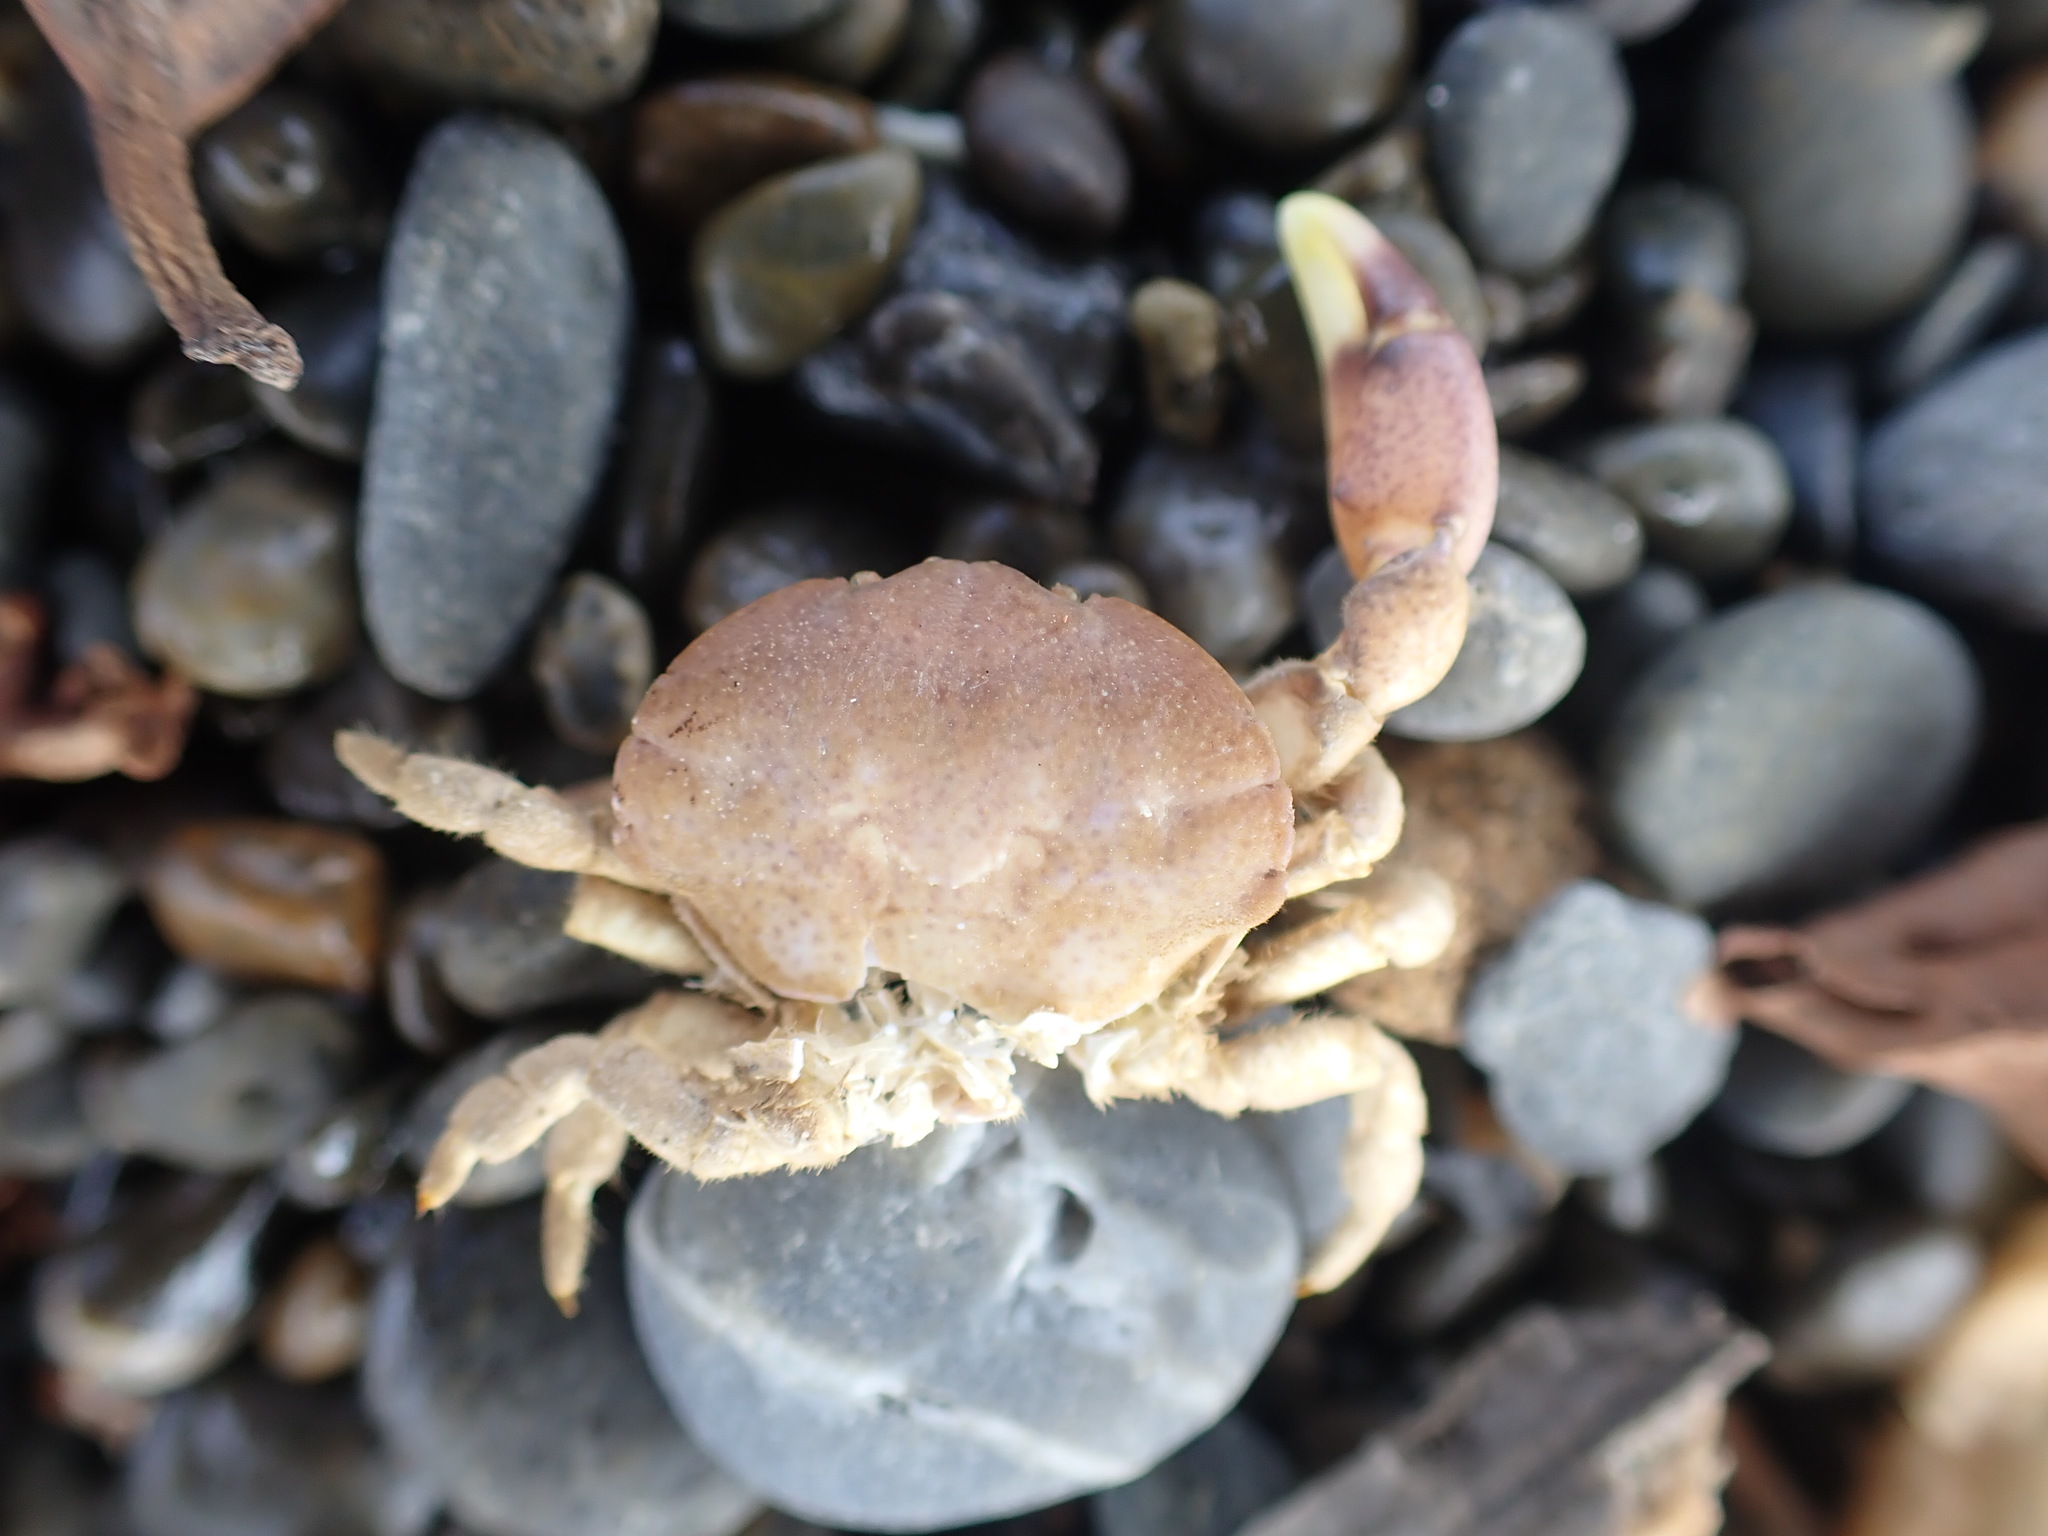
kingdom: Animalia
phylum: Arthropoda
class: Malacostraca
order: Decapoda
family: Heteroziidae
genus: Heterozius
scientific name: Heterozius rotundifrons
